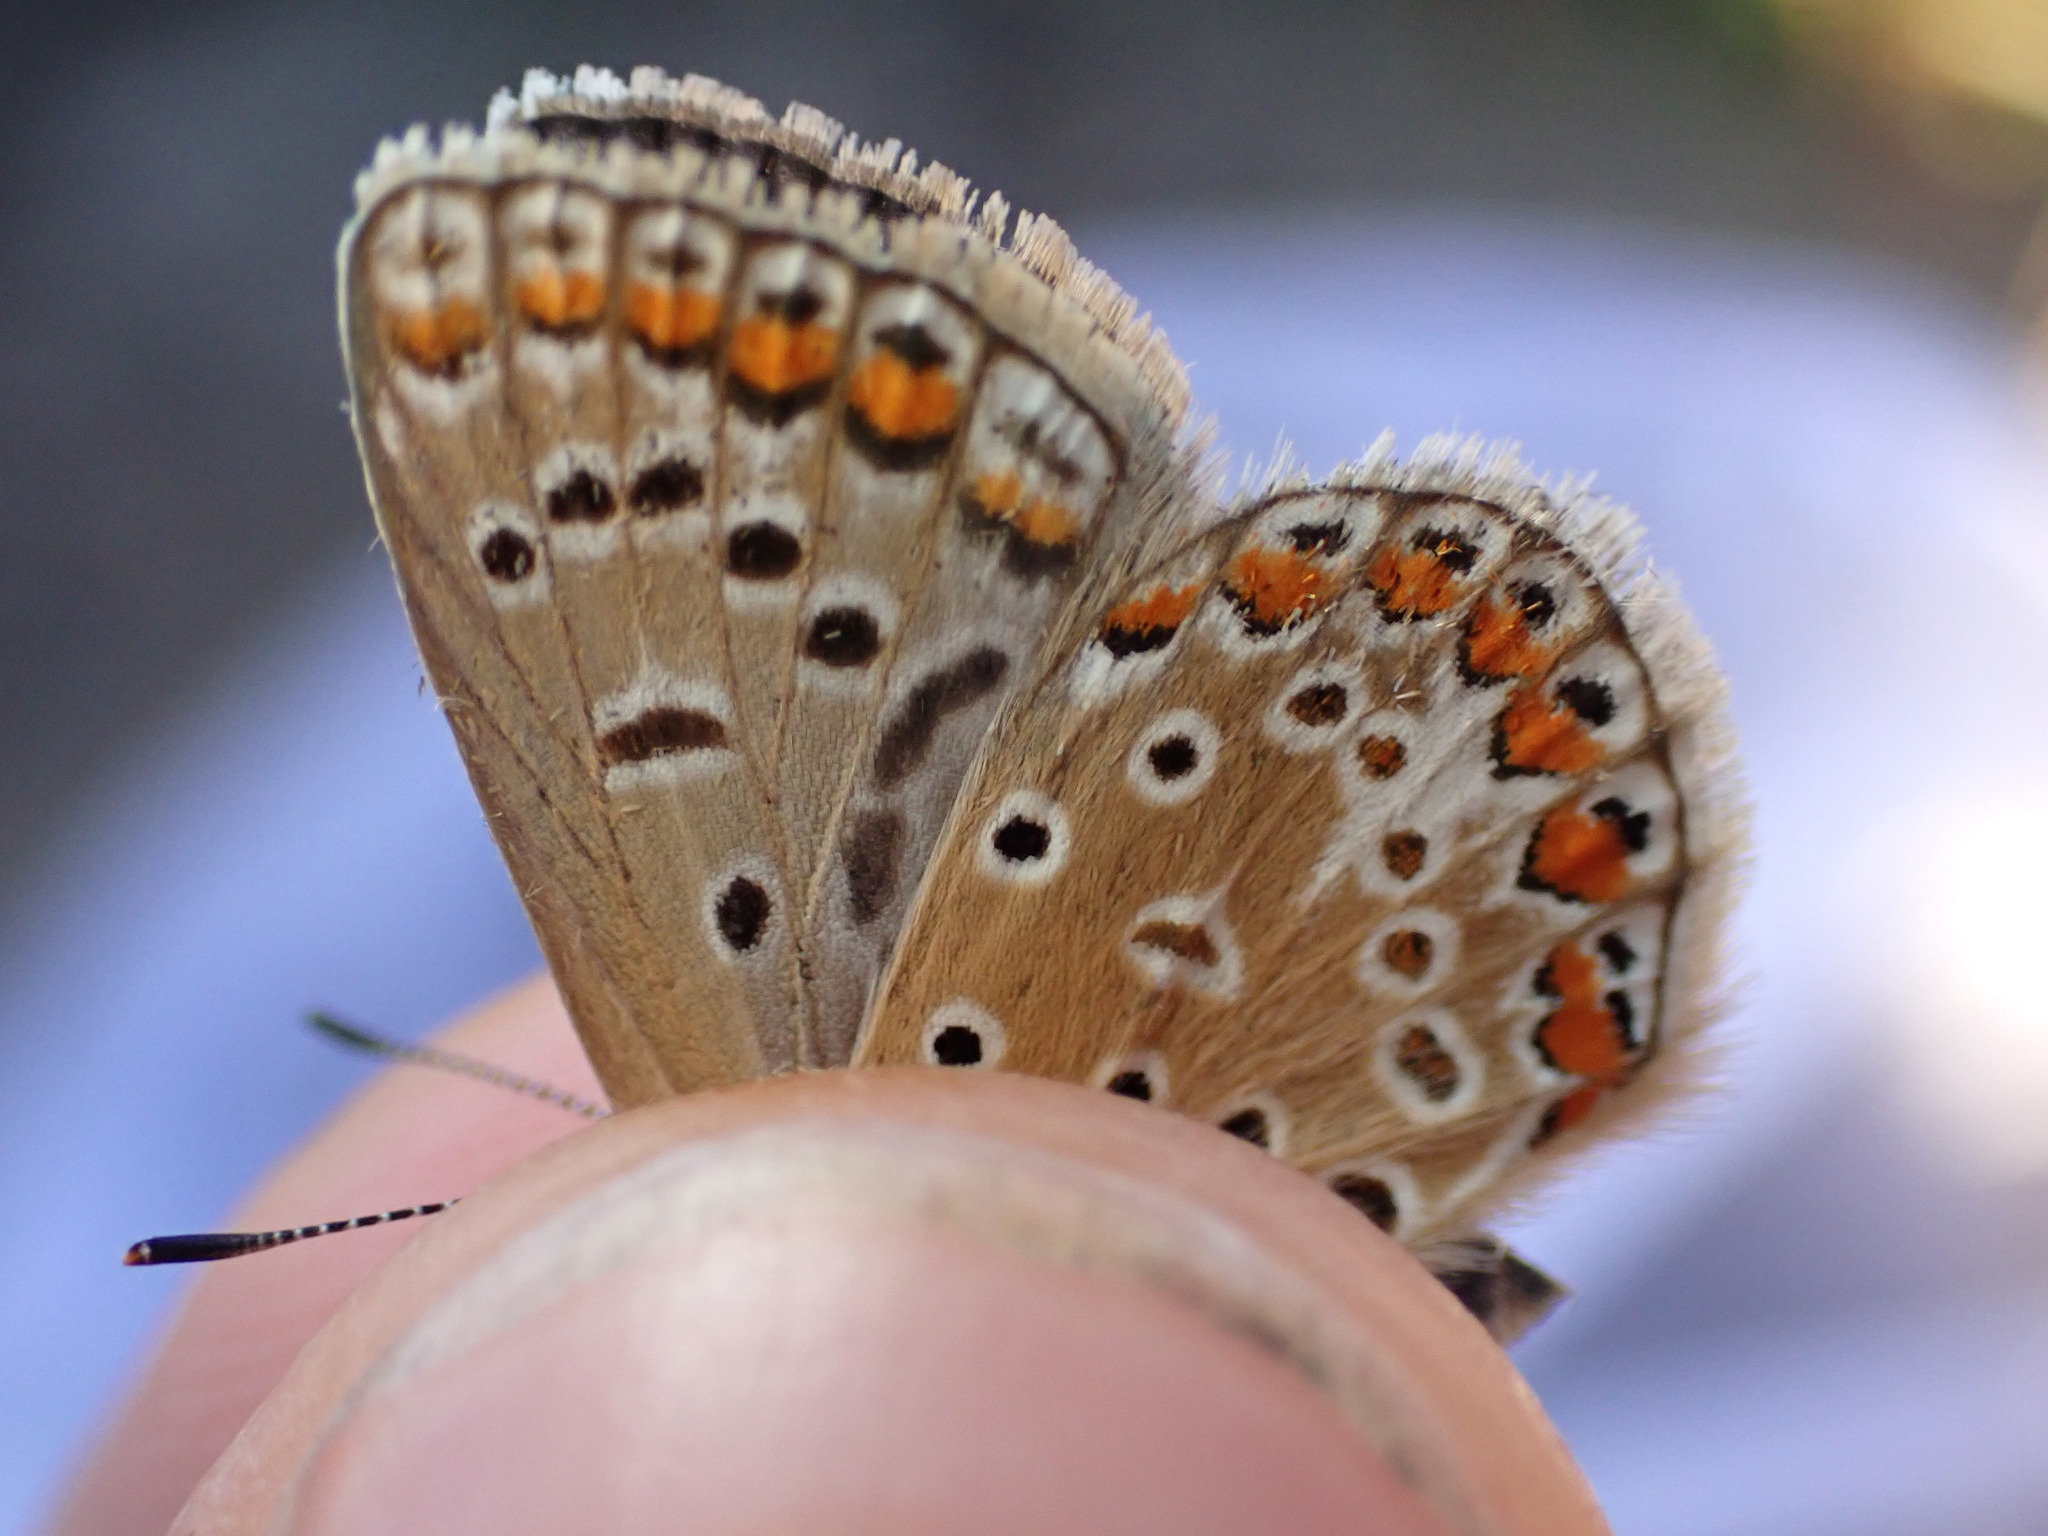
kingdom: Animalia
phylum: Arthropoda
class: Insecta
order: Lepidoptera
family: Lycaenidae
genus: Polyommatus
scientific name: Polyommatus icarus
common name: Common blue
